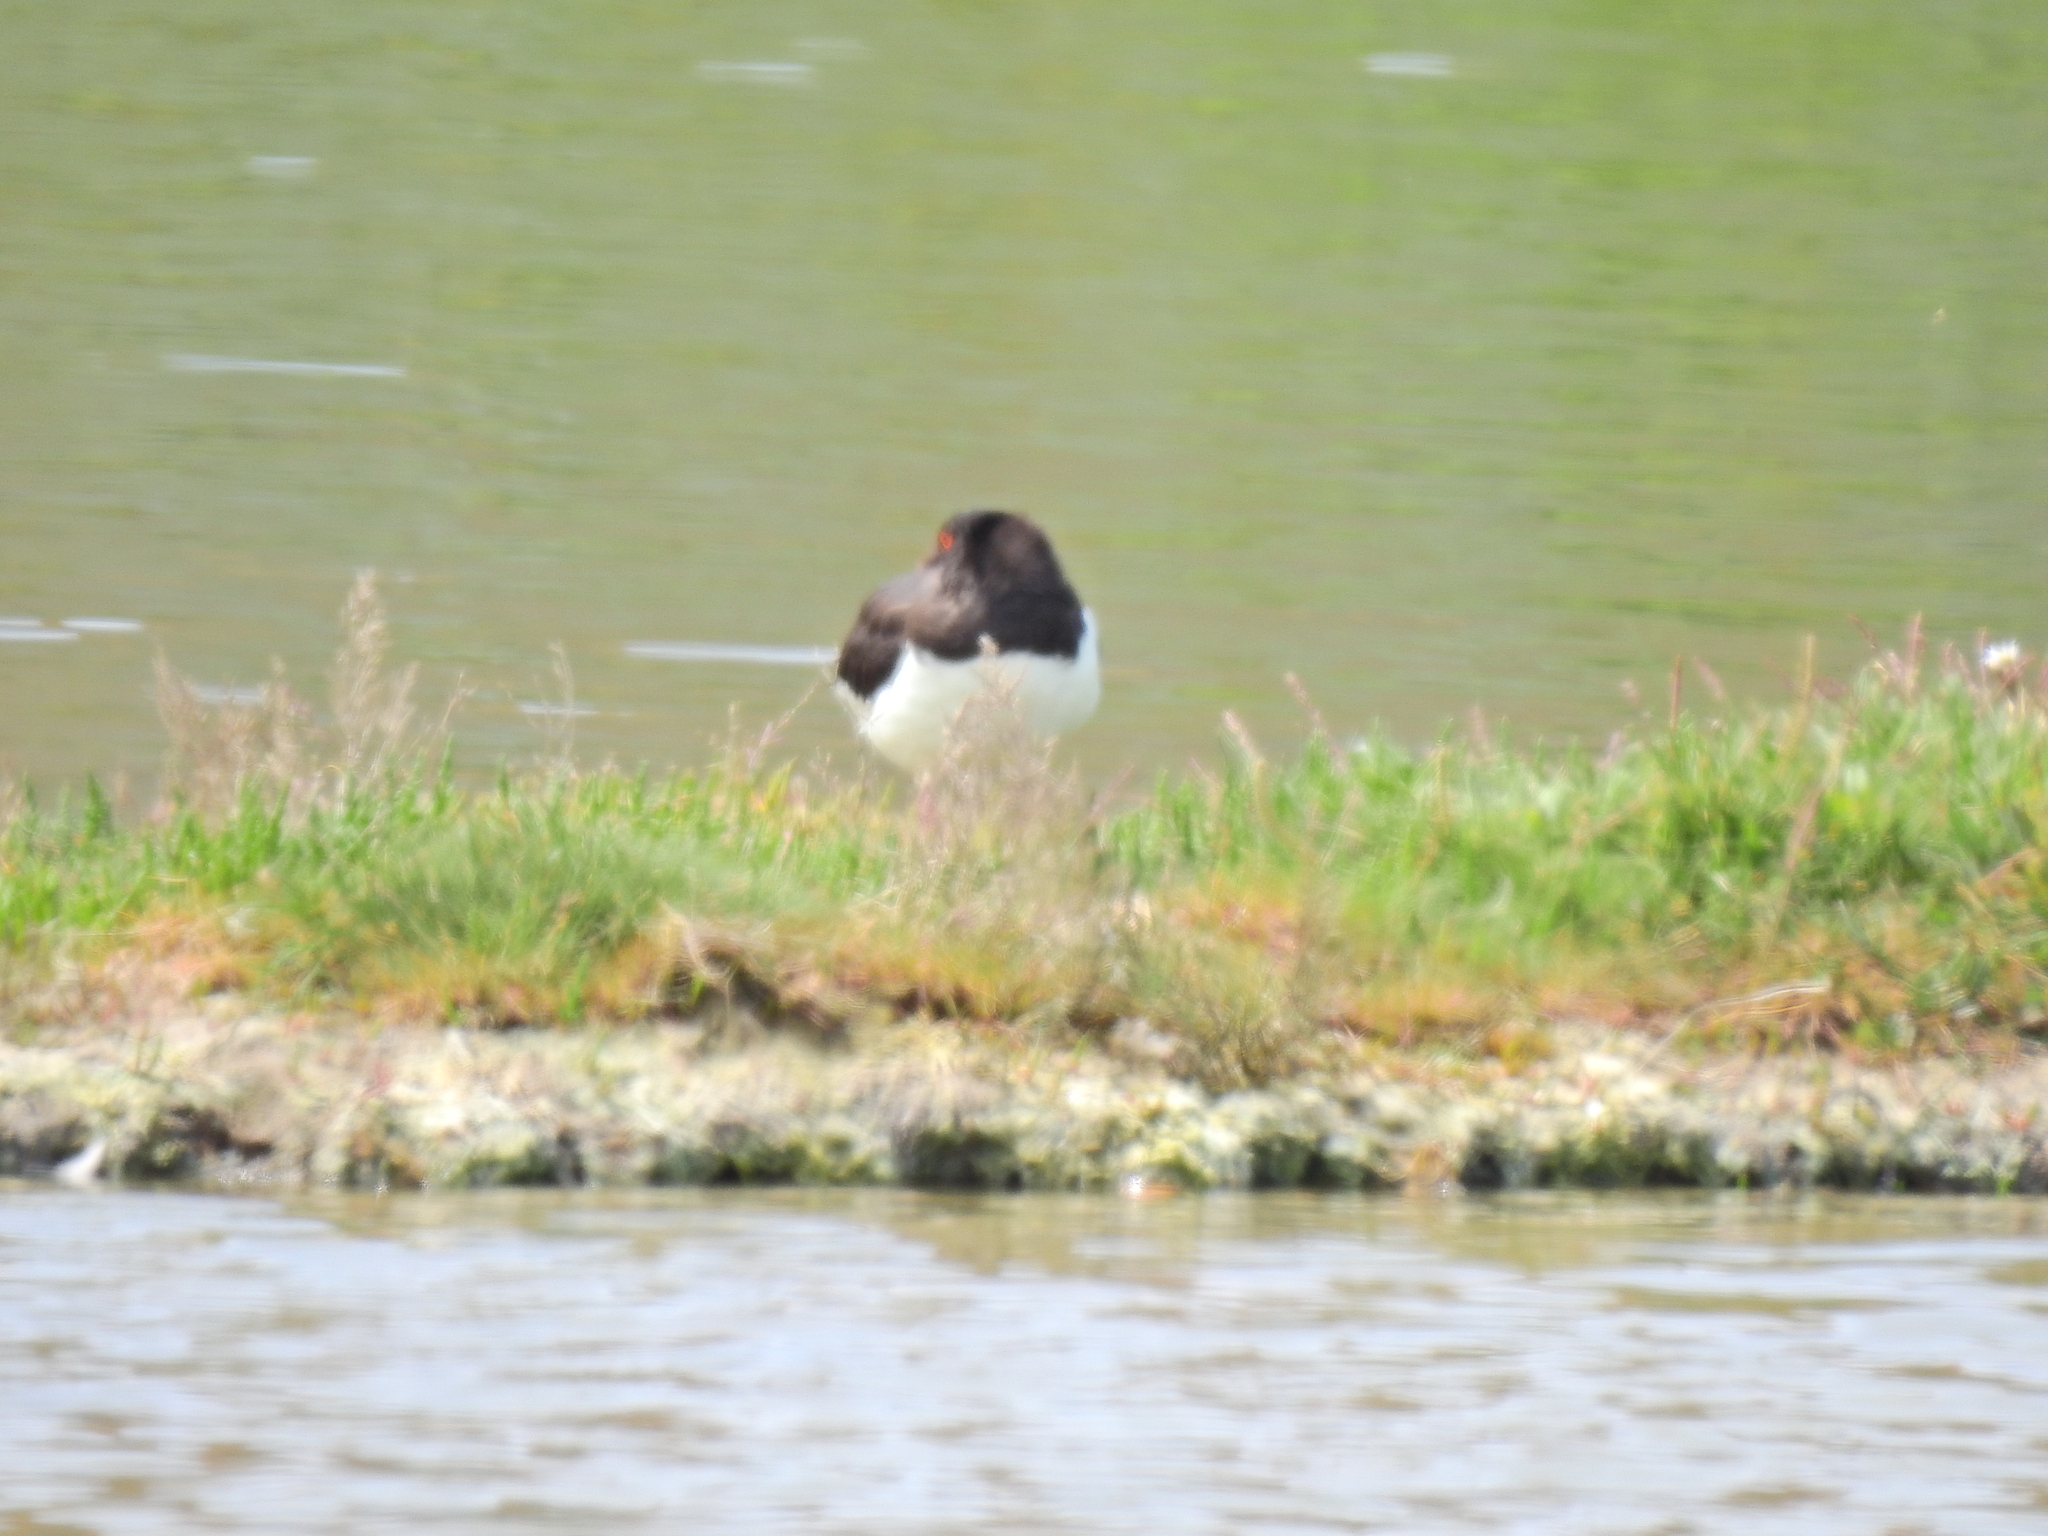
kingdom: Animalia
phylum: Chordata
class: Aves
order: Charadriiformes
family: Haematopodidae
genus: Haematopus
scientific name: Haematopus ostralegus
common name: Eurasian oystercatcher
